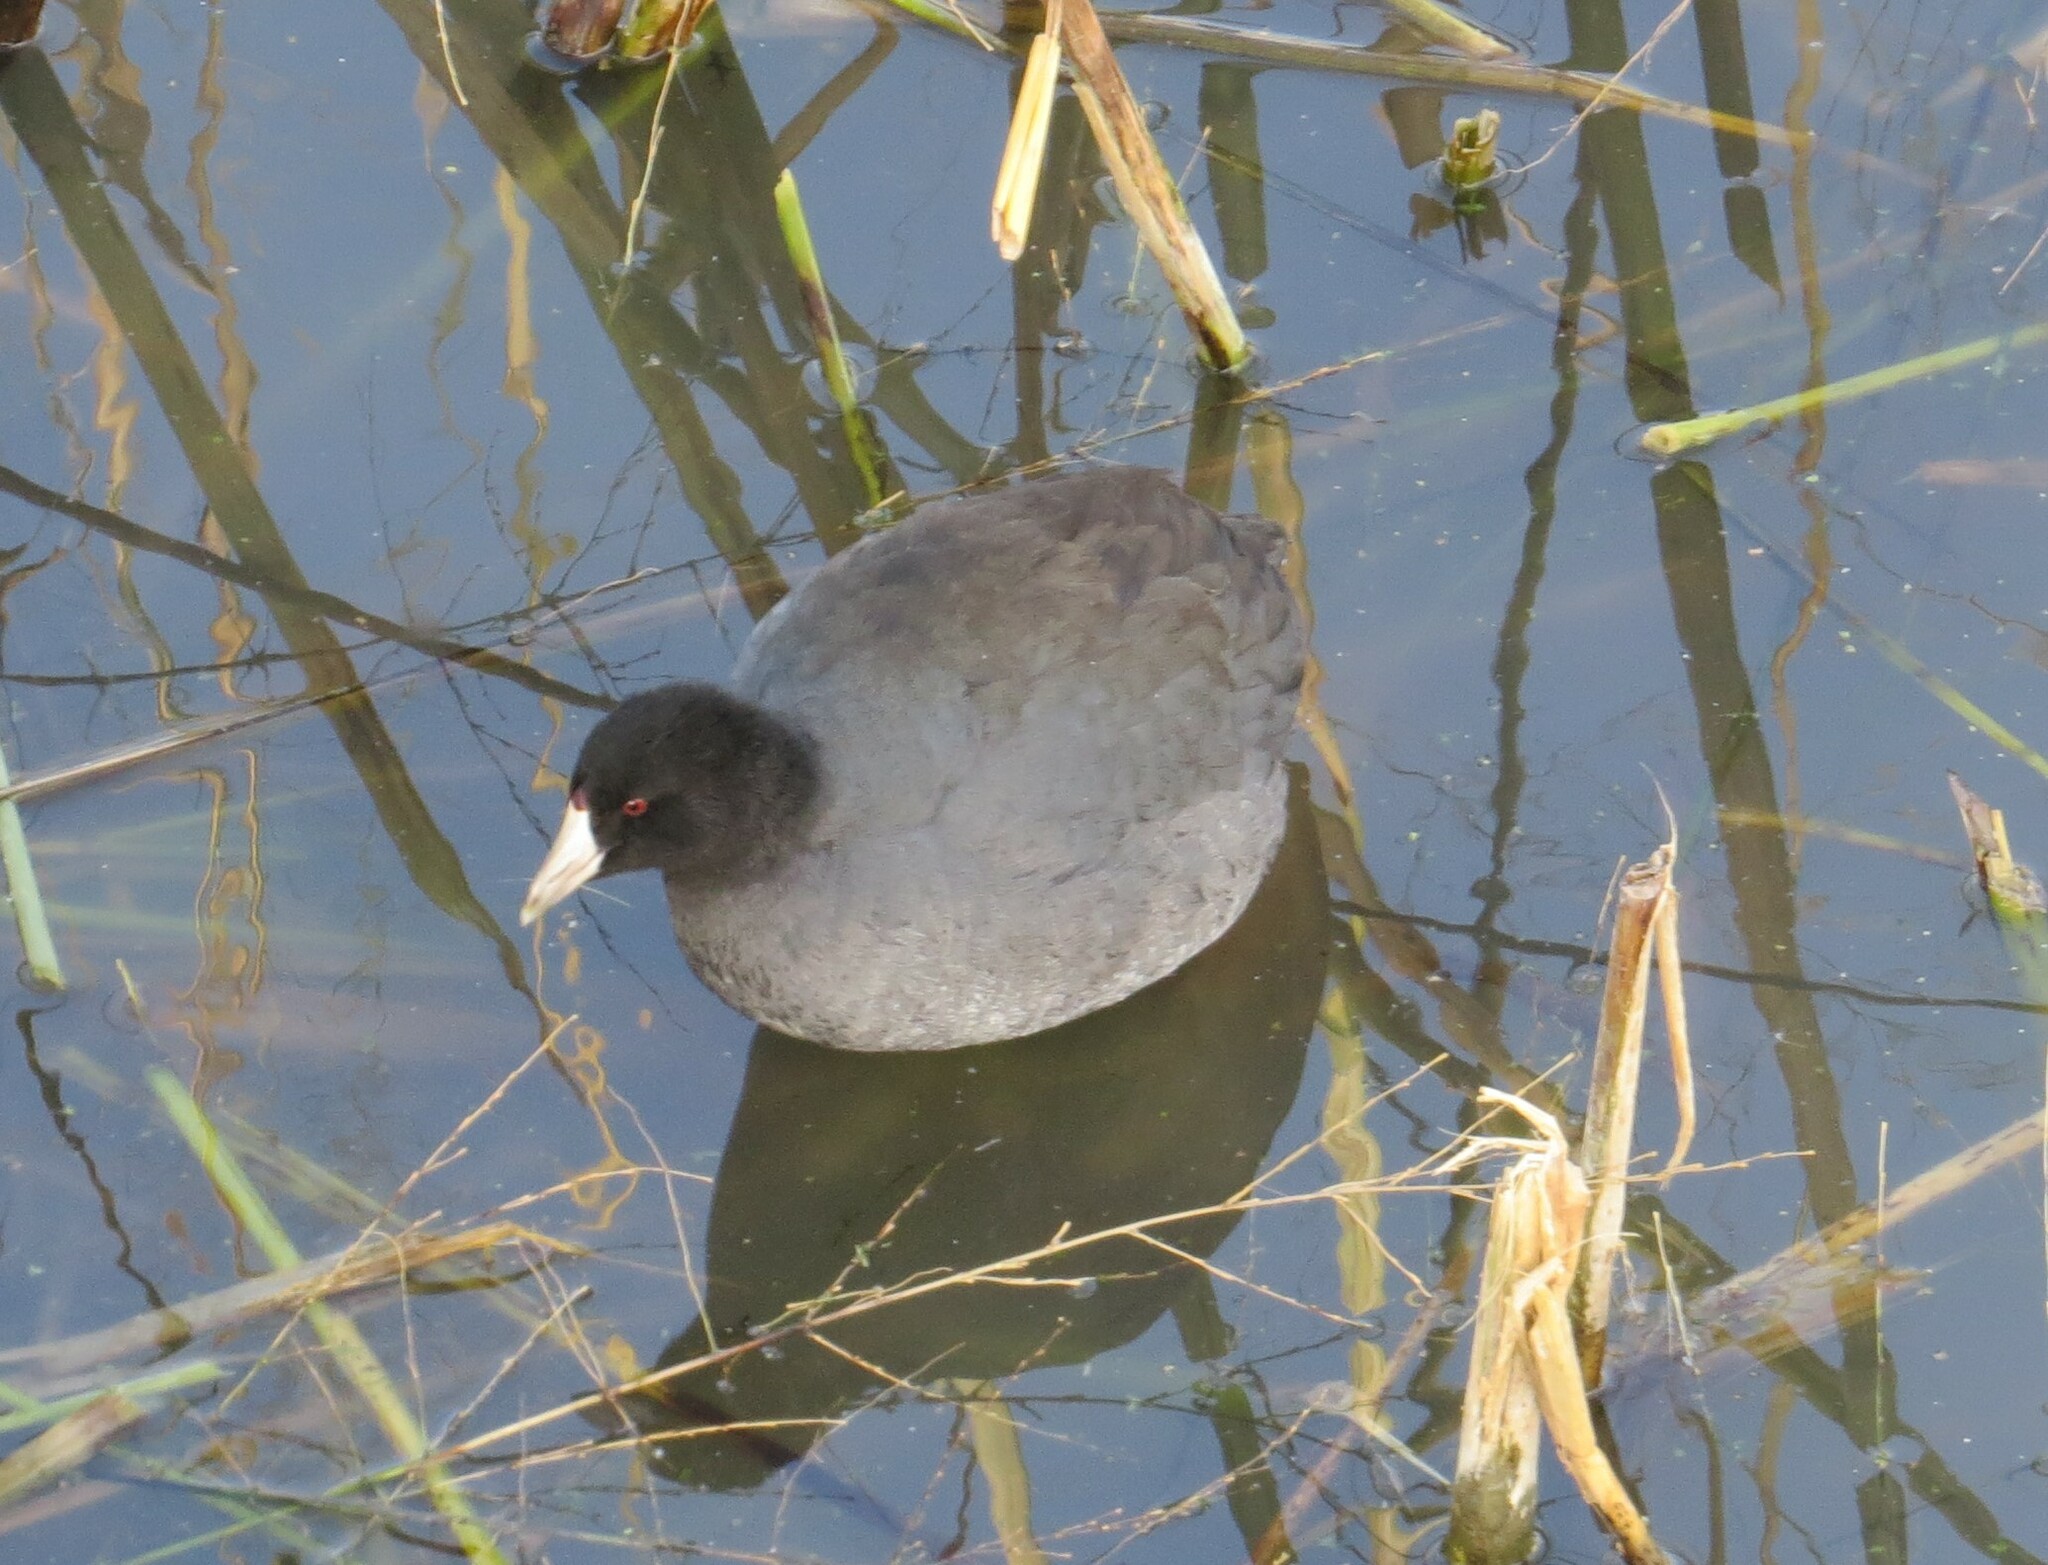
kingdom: Animalia
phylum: Chordata
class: Aves
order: Gruiformes
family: Rallidae
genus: Fulica
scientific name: Fulica americana
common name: American coot
